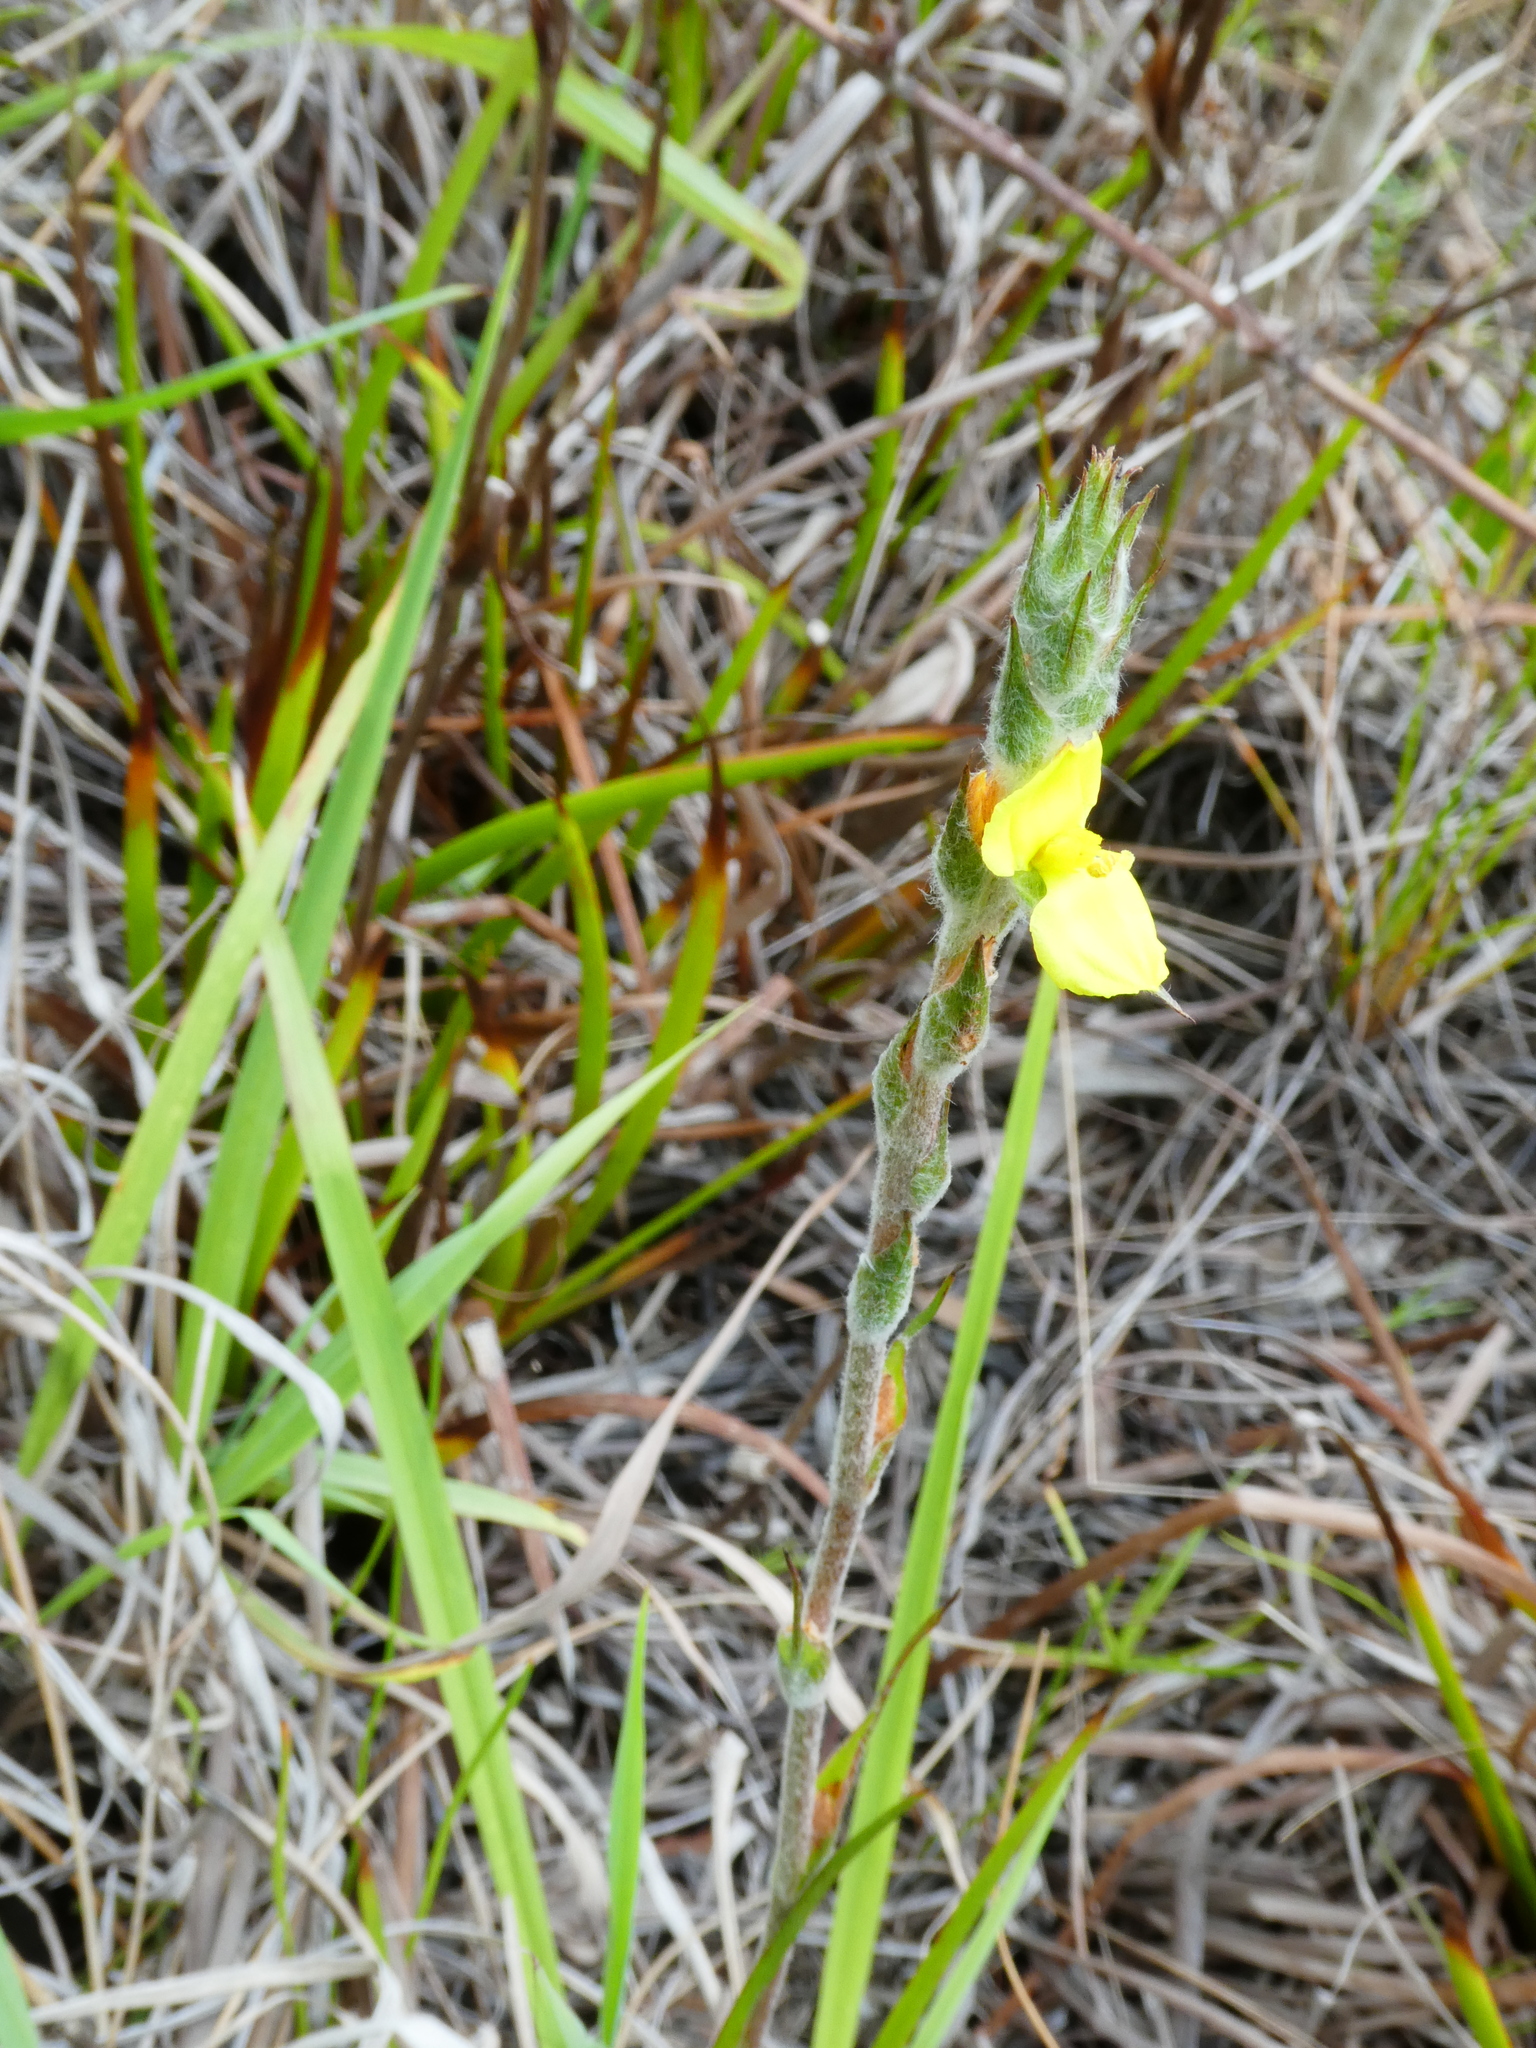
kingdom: Plantae
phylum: Tracheophyta
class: Liliopsida
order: Commelinales
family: Philydraceae
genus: Philydrum
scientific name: Philydrum lanuginosum
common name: Woolly frog's mouth
